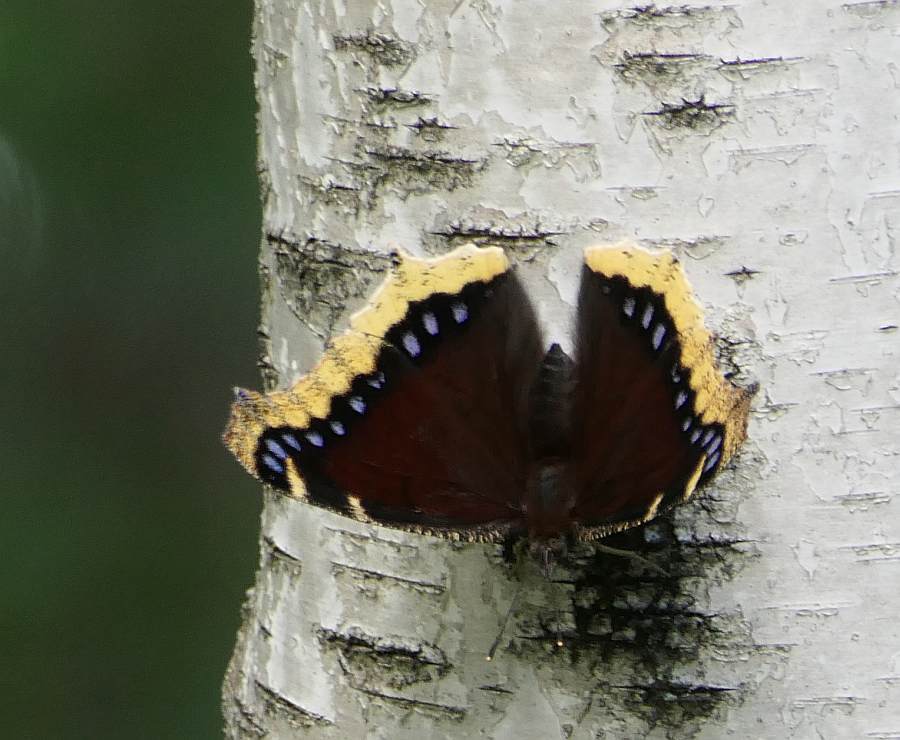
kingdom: Animalia
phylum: Arthropoda
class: Insecta
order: Lepidoptera
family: Nymphalidae
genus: Nymphalis
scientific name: Nymphalis antiopa
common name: Camberwell beauty
